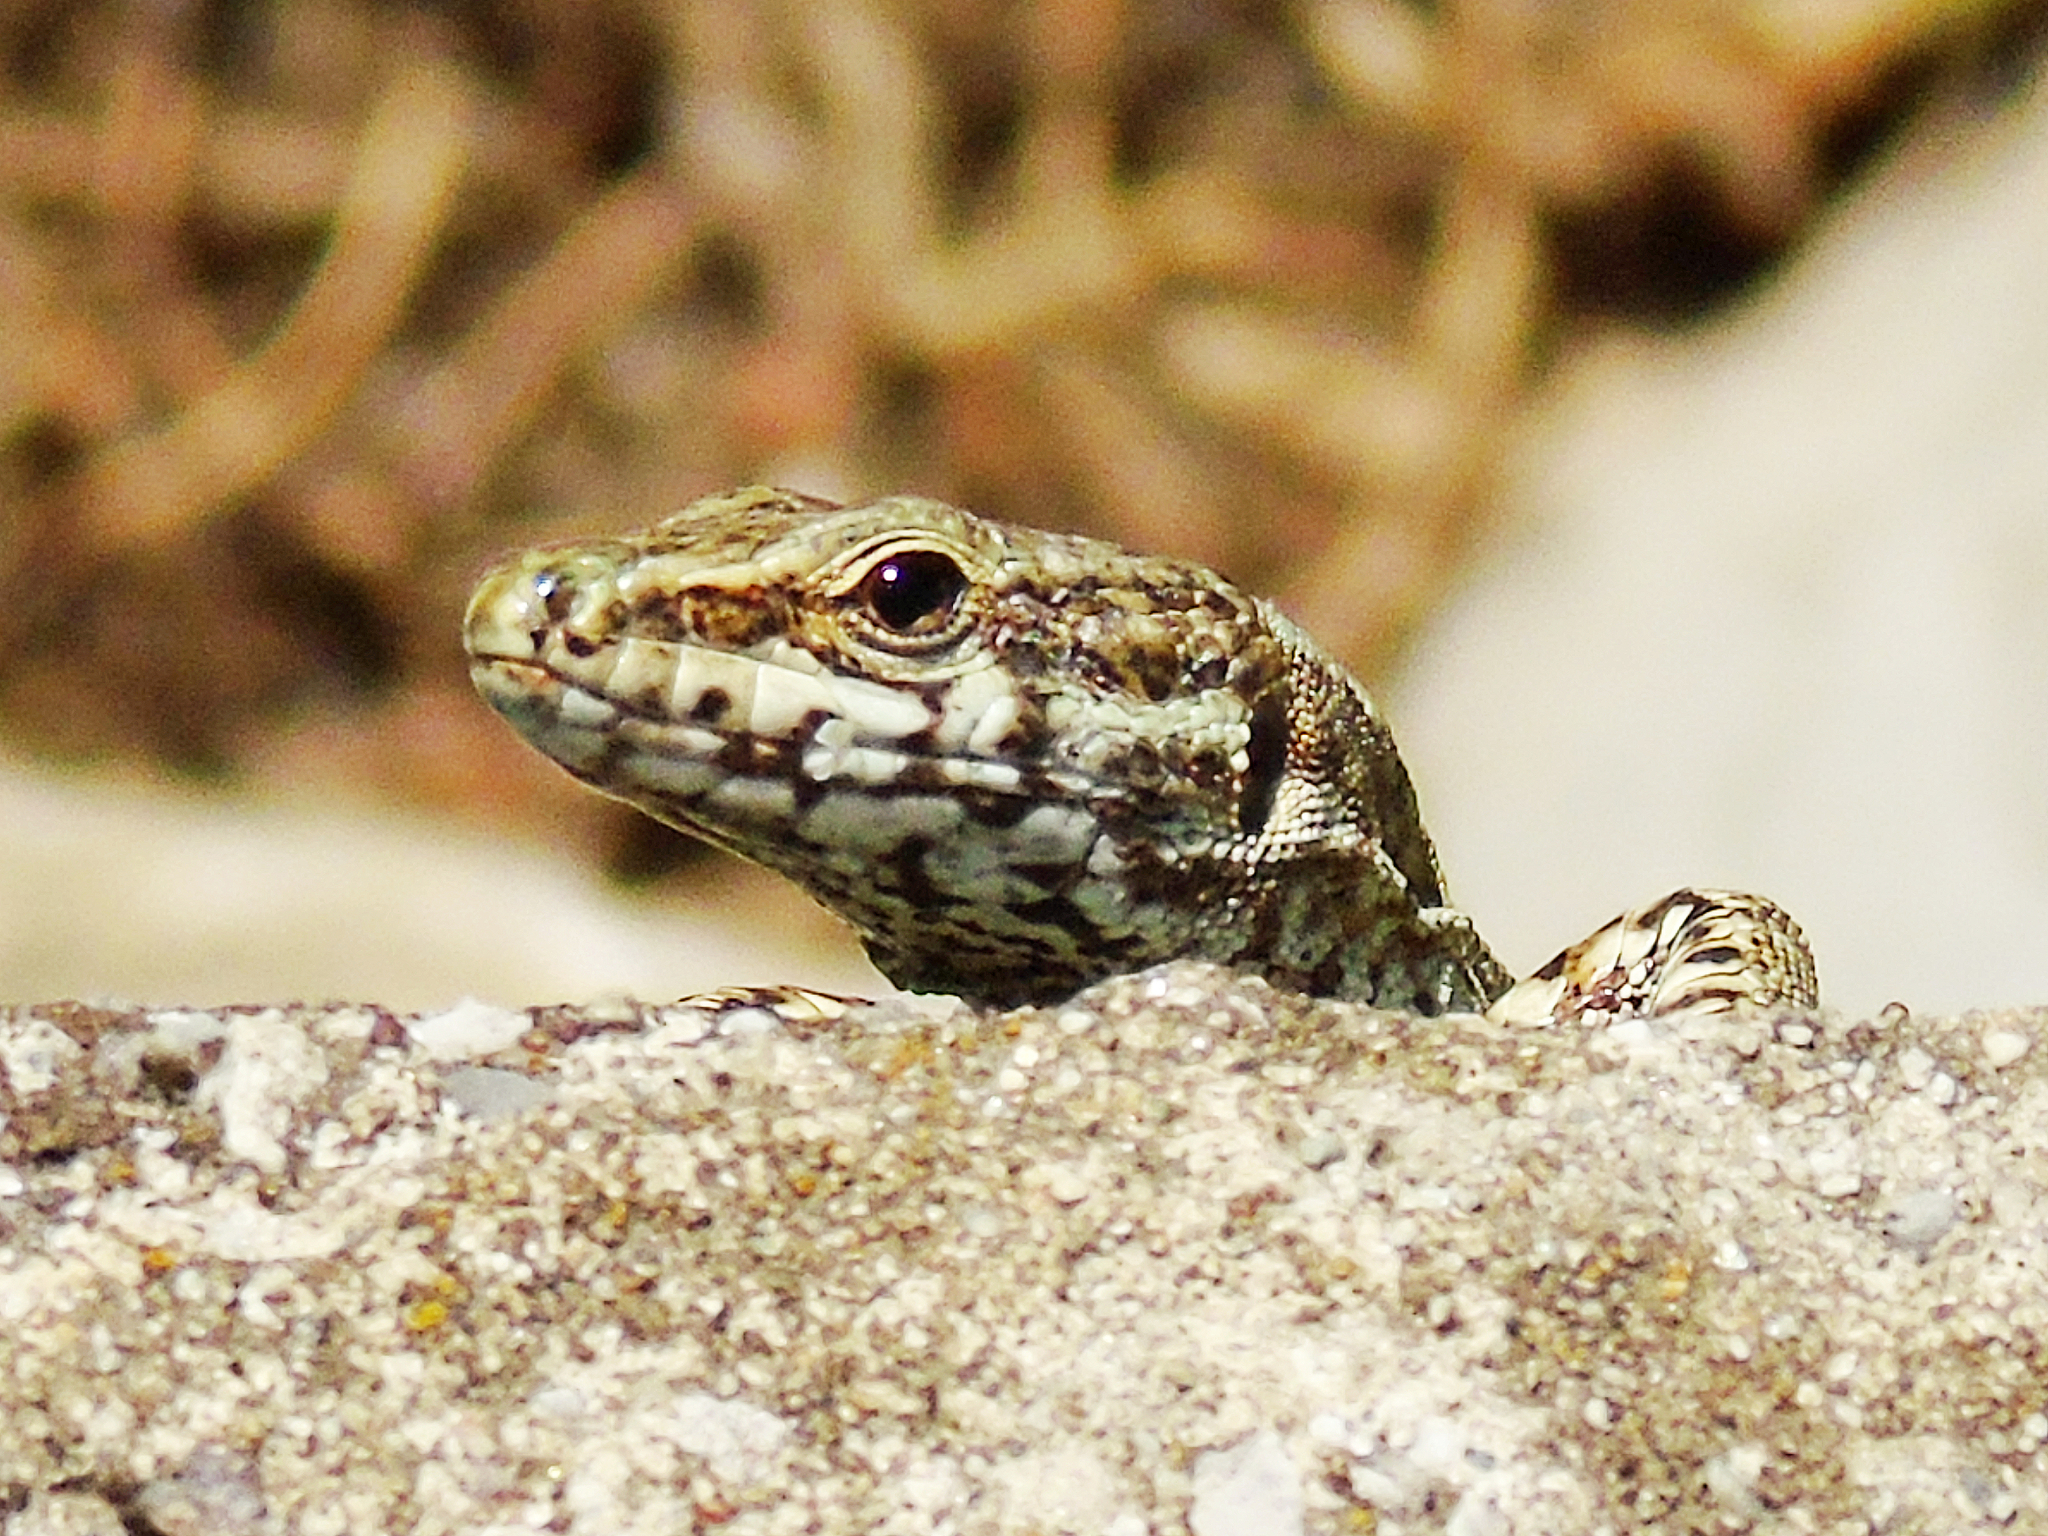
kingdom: Animalia
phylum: Chordata
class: Squamata
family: Lacertidae
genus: Podarcis
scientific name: Podarcis muralis
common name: Common wall lizard
